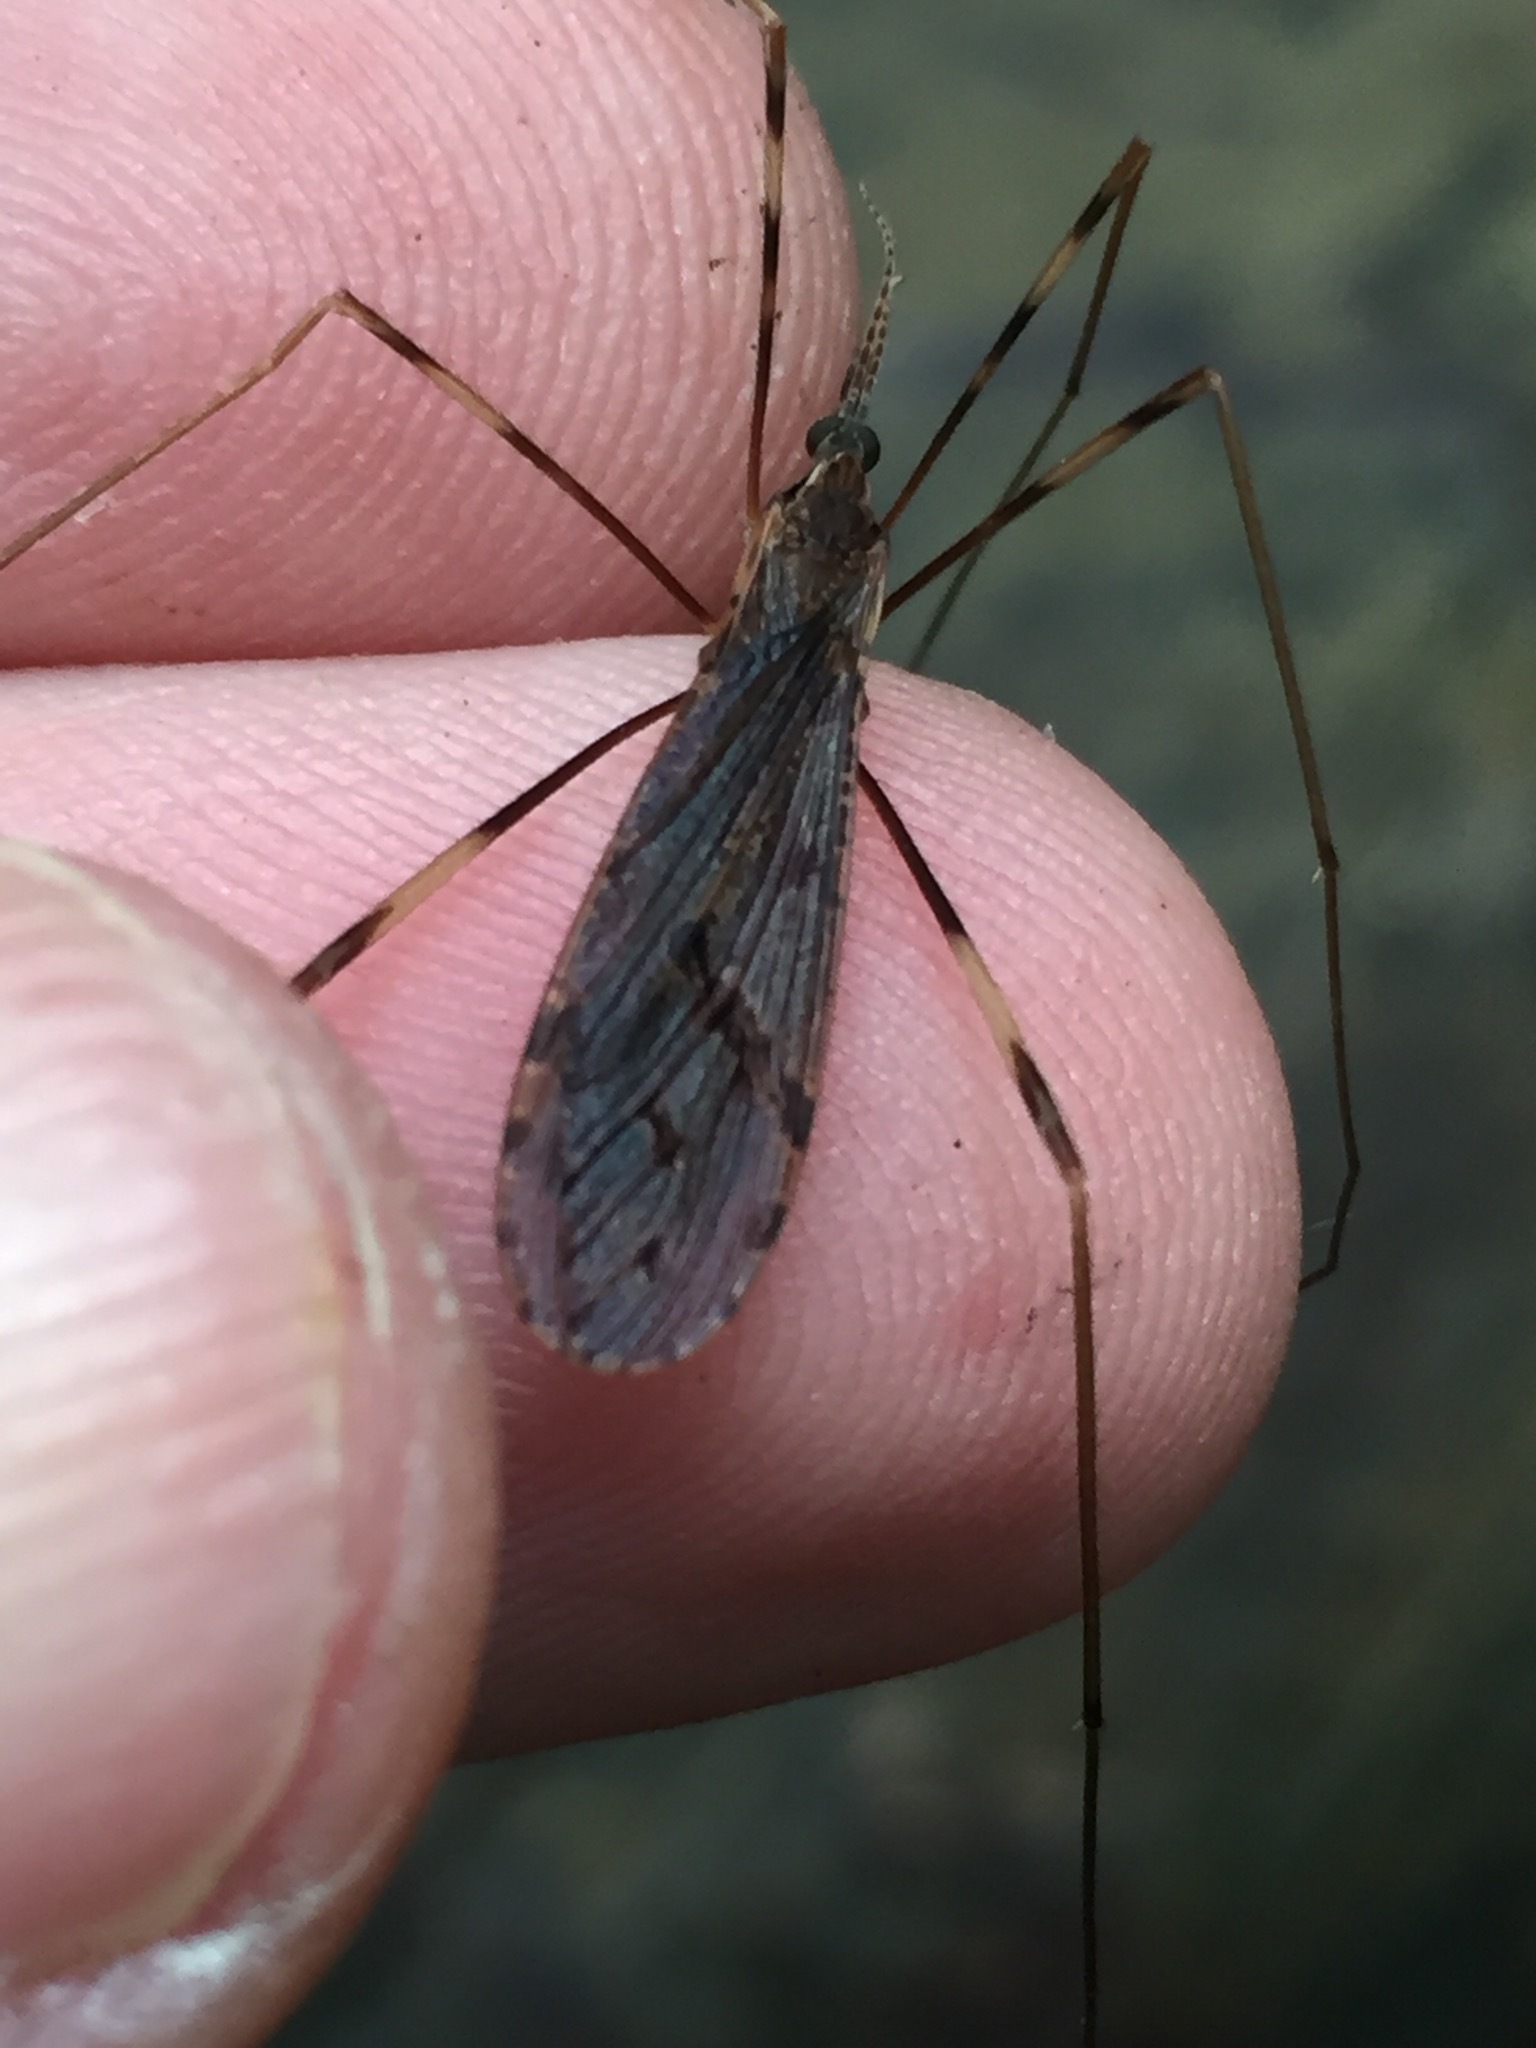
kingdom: Animalia
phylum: Arthropoda
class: Insecta
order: Diptera
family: Limoniidae
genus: Rhamphophila
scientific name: Rhamphophila sinistra
